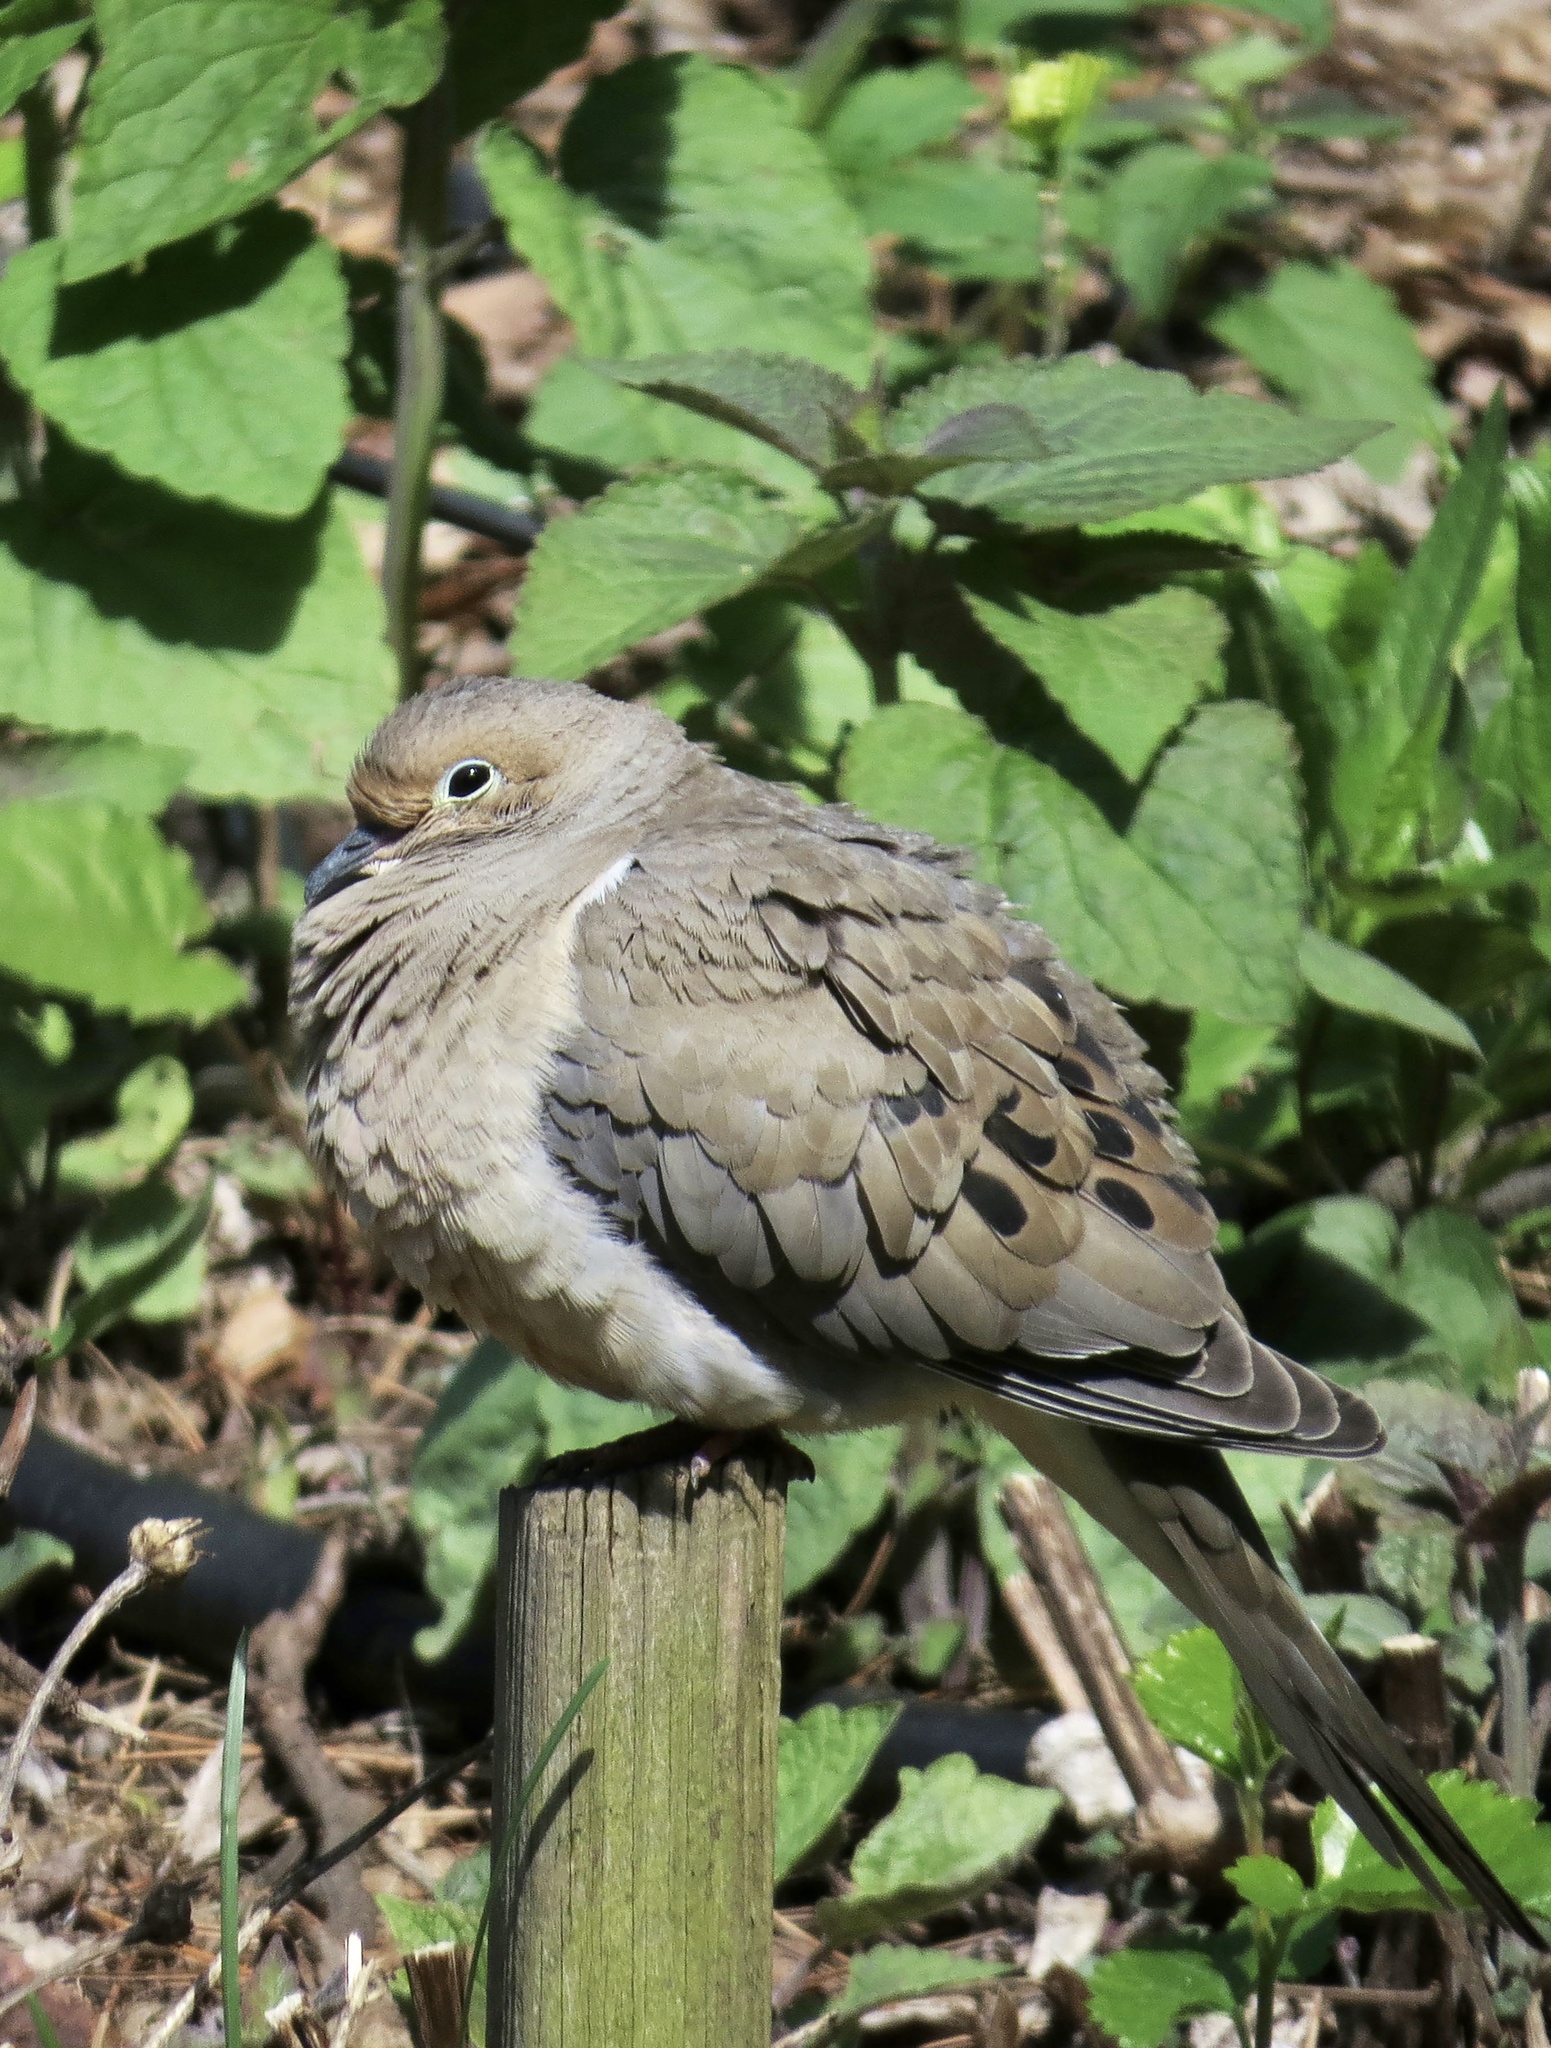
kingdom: Animalia
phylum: Chordata
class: Aves
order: Columbiformes
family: Columbidae
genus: Zenaida
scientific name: Zenaida macroura
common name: Mourning dove
